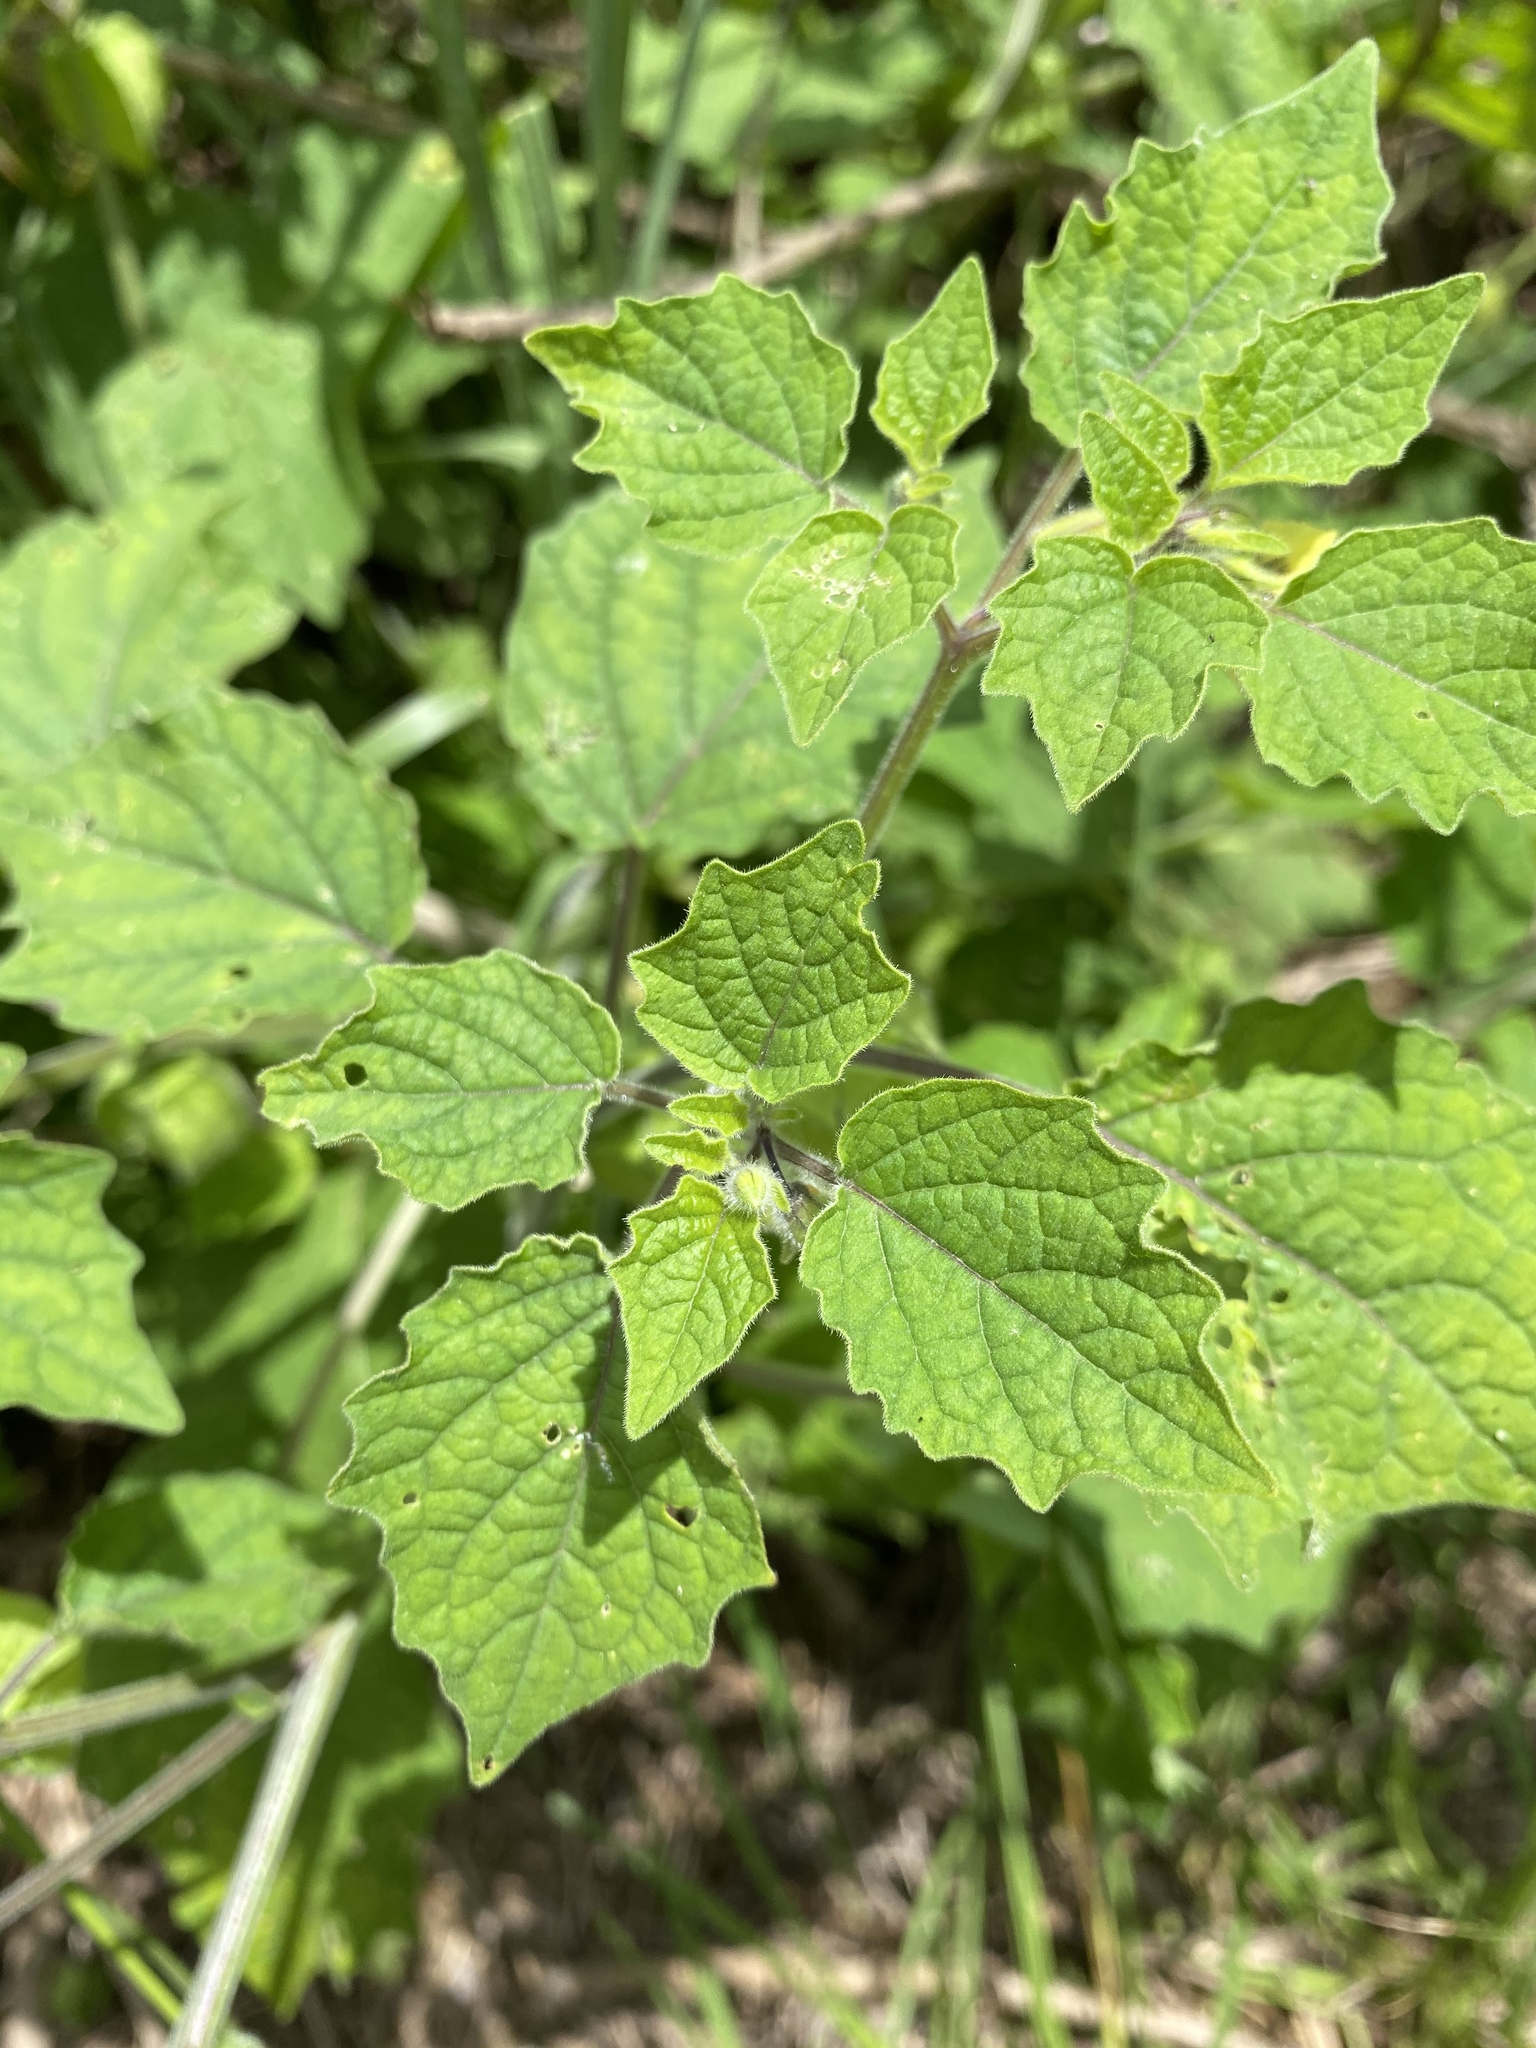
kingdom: Plantae
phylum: Tracheophyta
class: Magnoliopsida
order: Solanales
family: Solanaceae
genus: Physalis
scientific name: Physalis pubescens
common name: Downy ground-cherry
